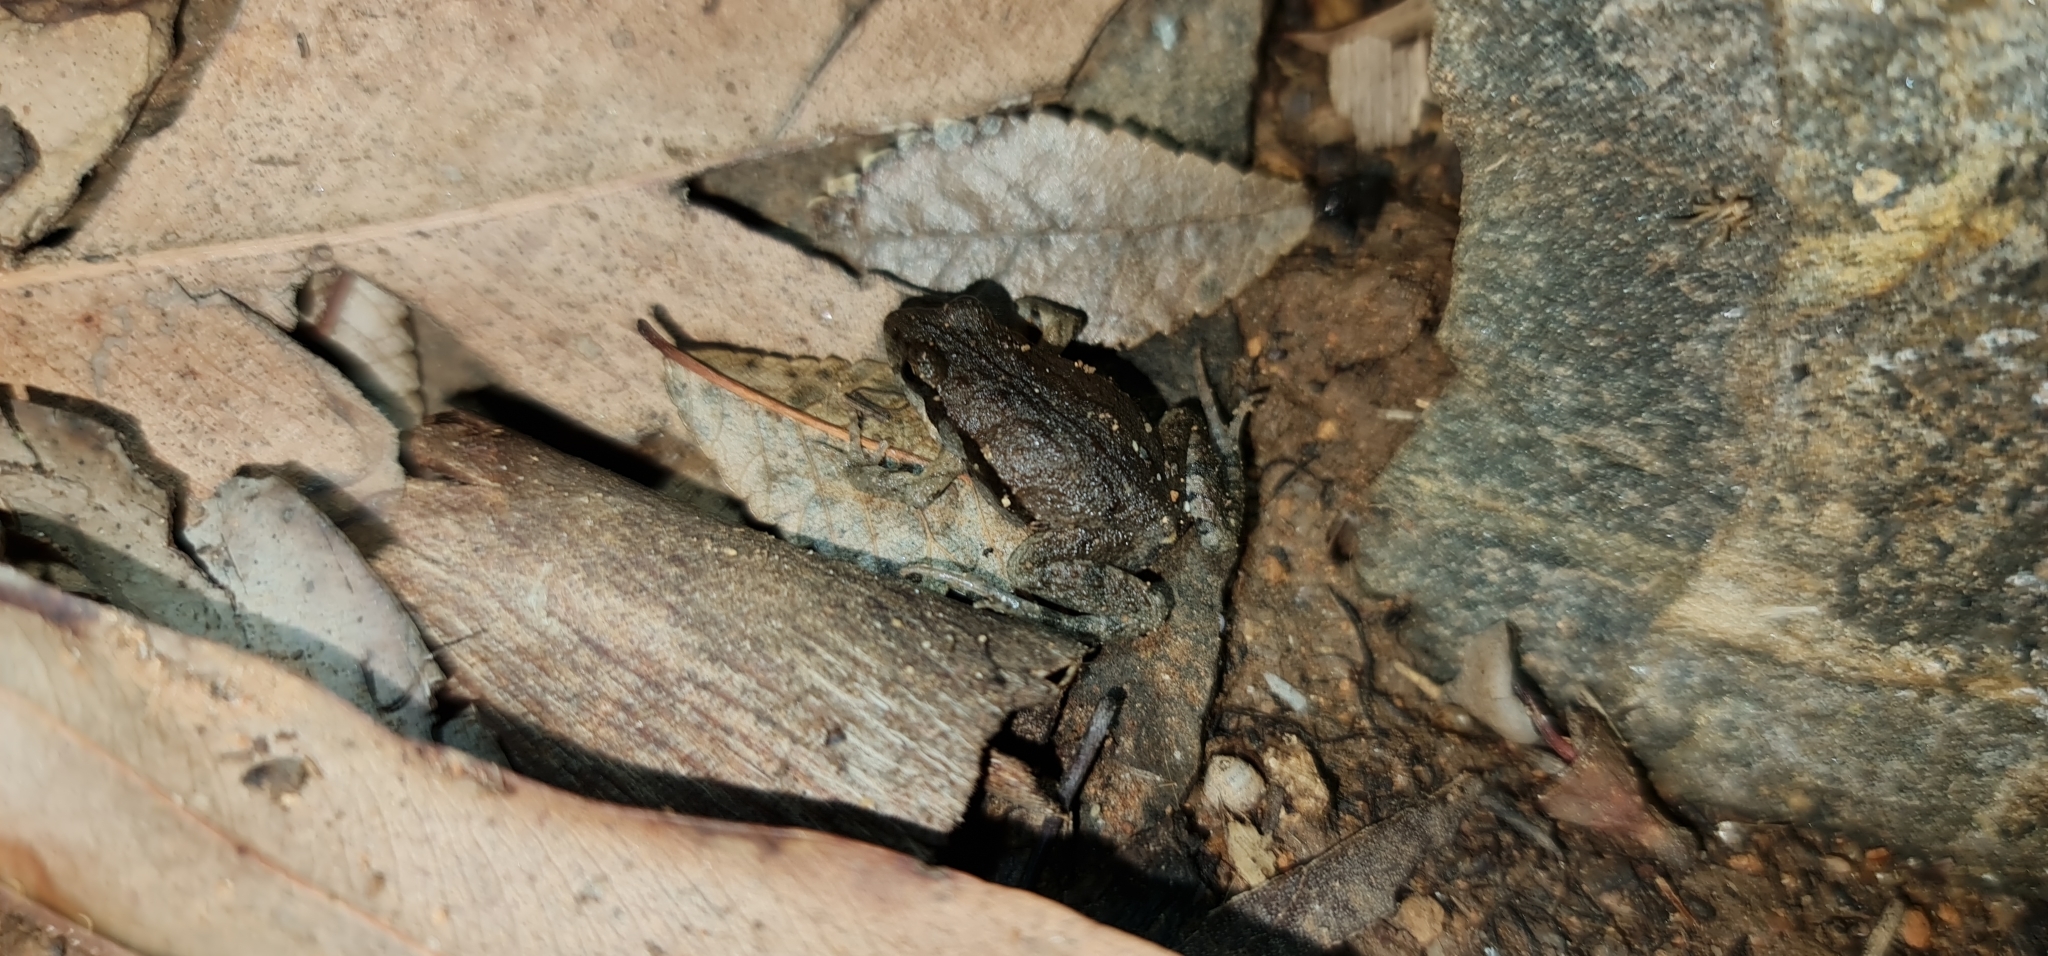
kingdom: Animalia
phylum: Chordata
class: Amphibia
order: Anura
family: Myobatrachidae
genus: Crinia
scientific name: Crinia signifera
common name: Brown froglet
